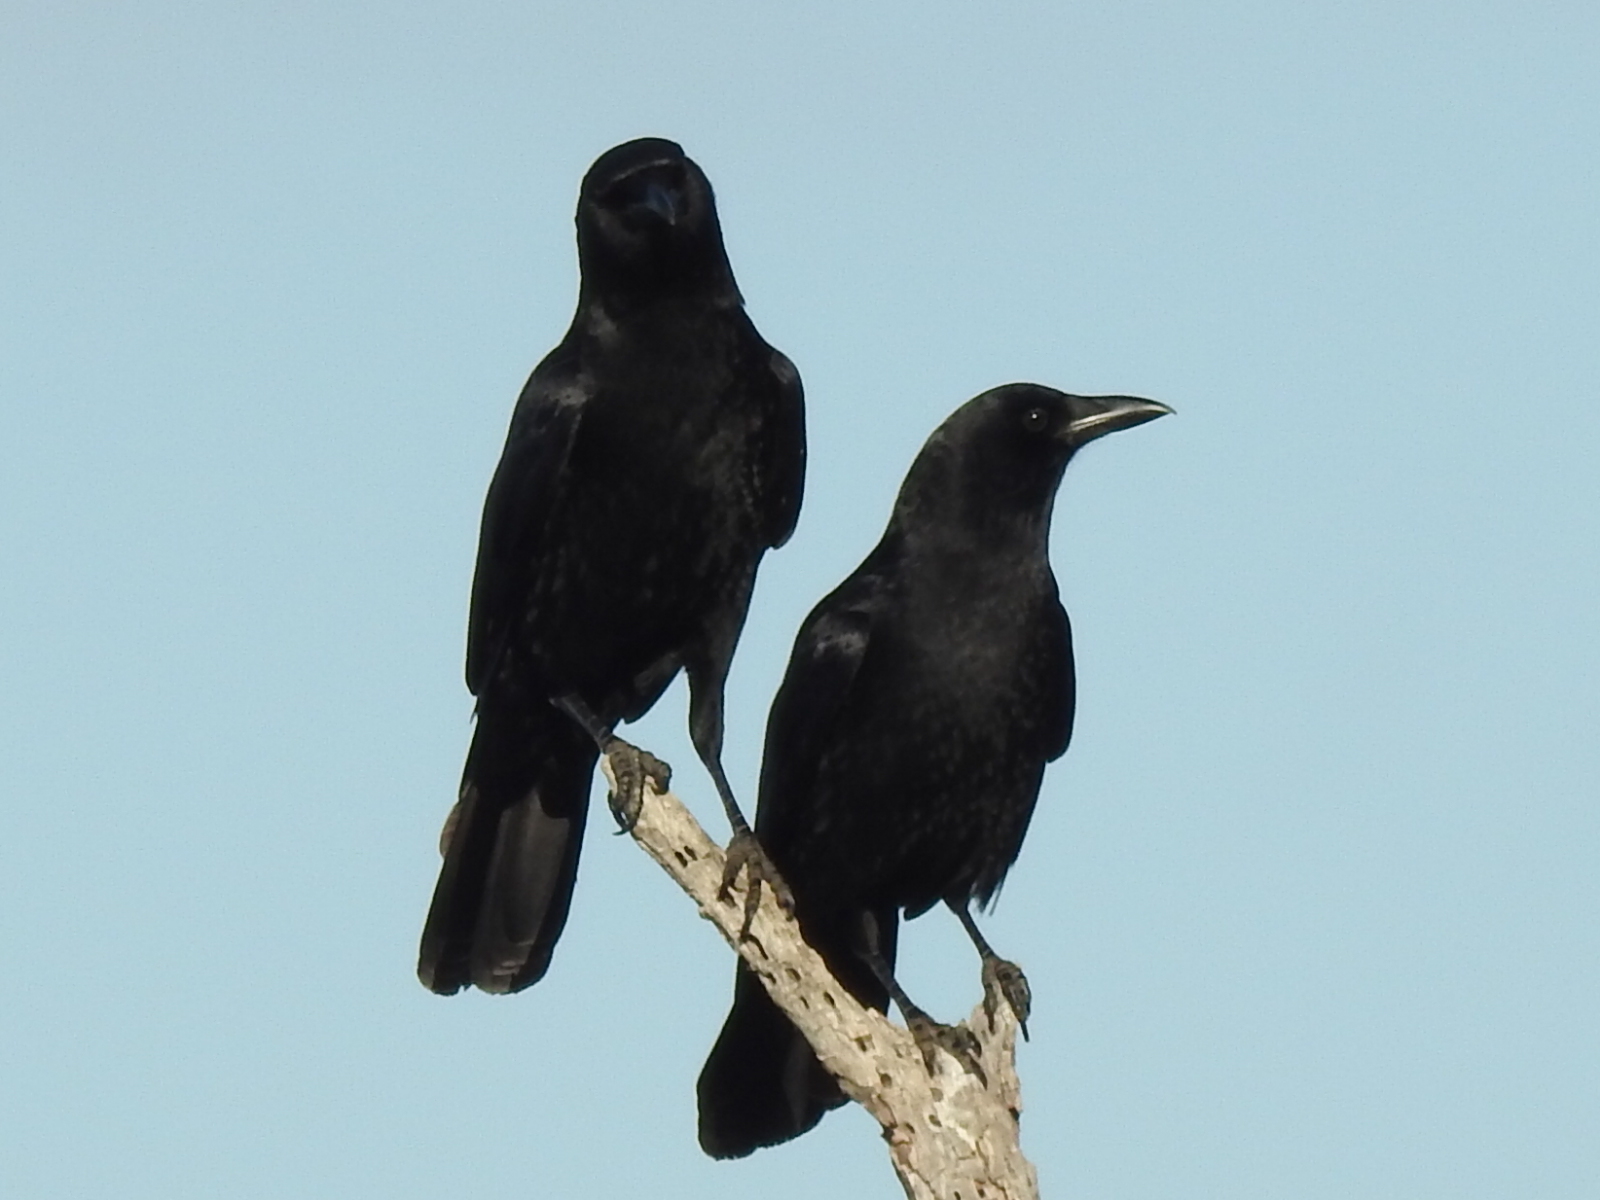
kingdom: Animalia
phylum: Chordata
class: Aves
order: Passeriformes
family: Corvidae
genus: Corvus
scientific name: Corvus brachyrhynchos
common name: American crow
